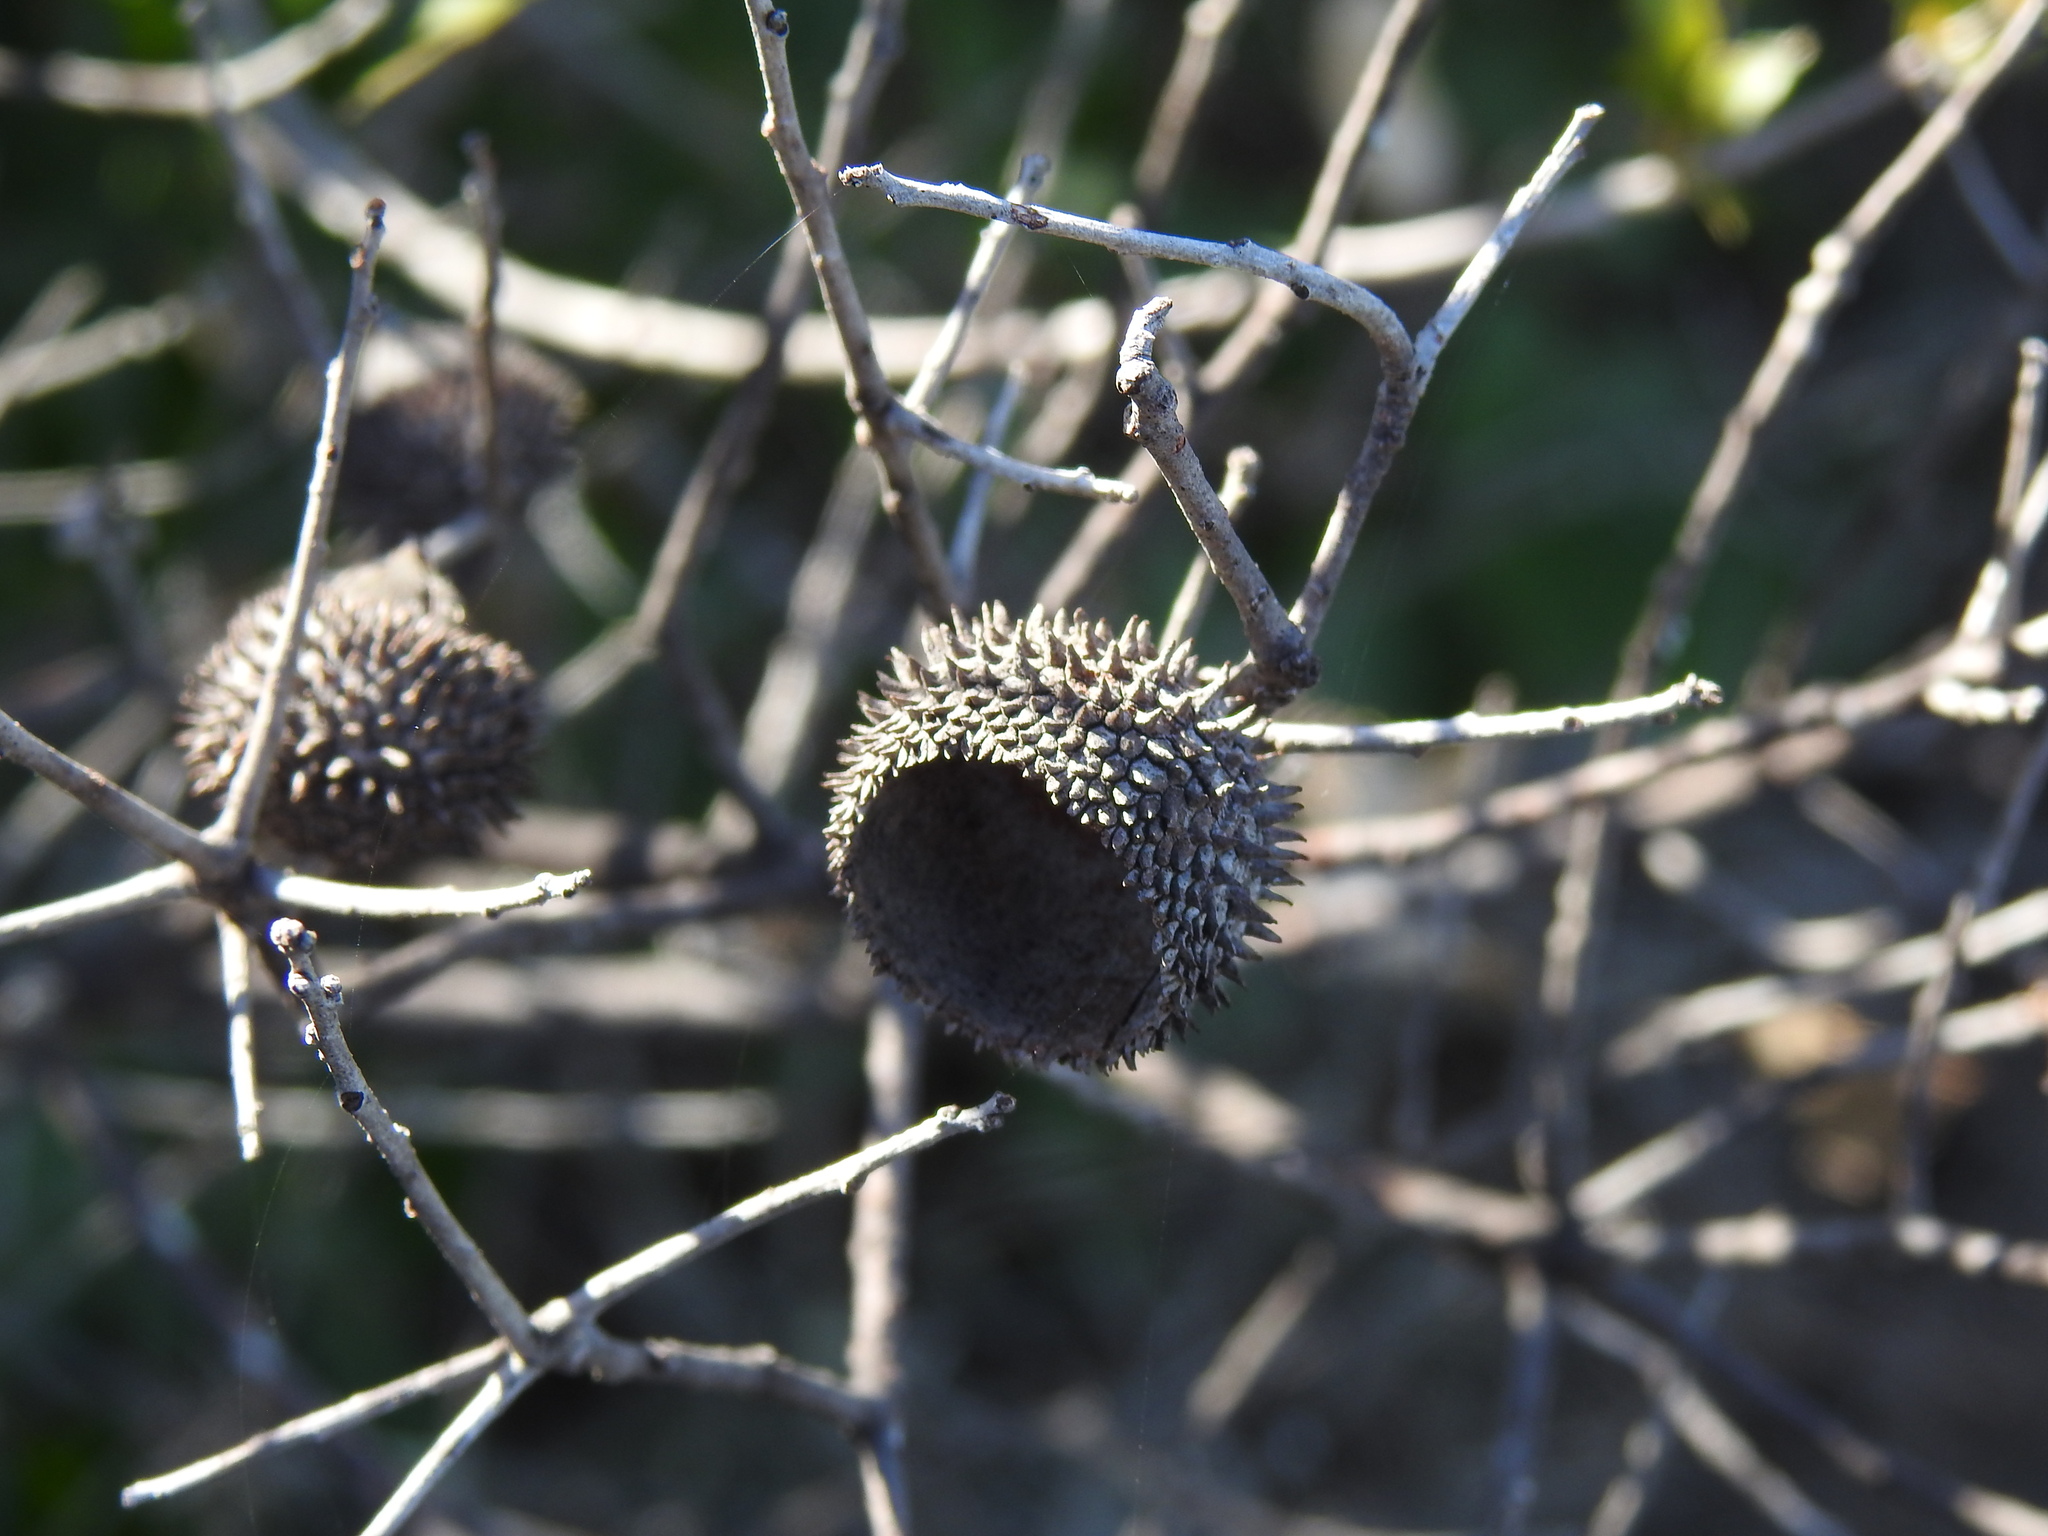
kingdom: Plantae
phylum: Tracheophyta
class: Magnoliopsida
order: Fagales
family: Fagaceae
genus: Quercus
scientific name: Quercus coccifera
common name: Kermes oak
